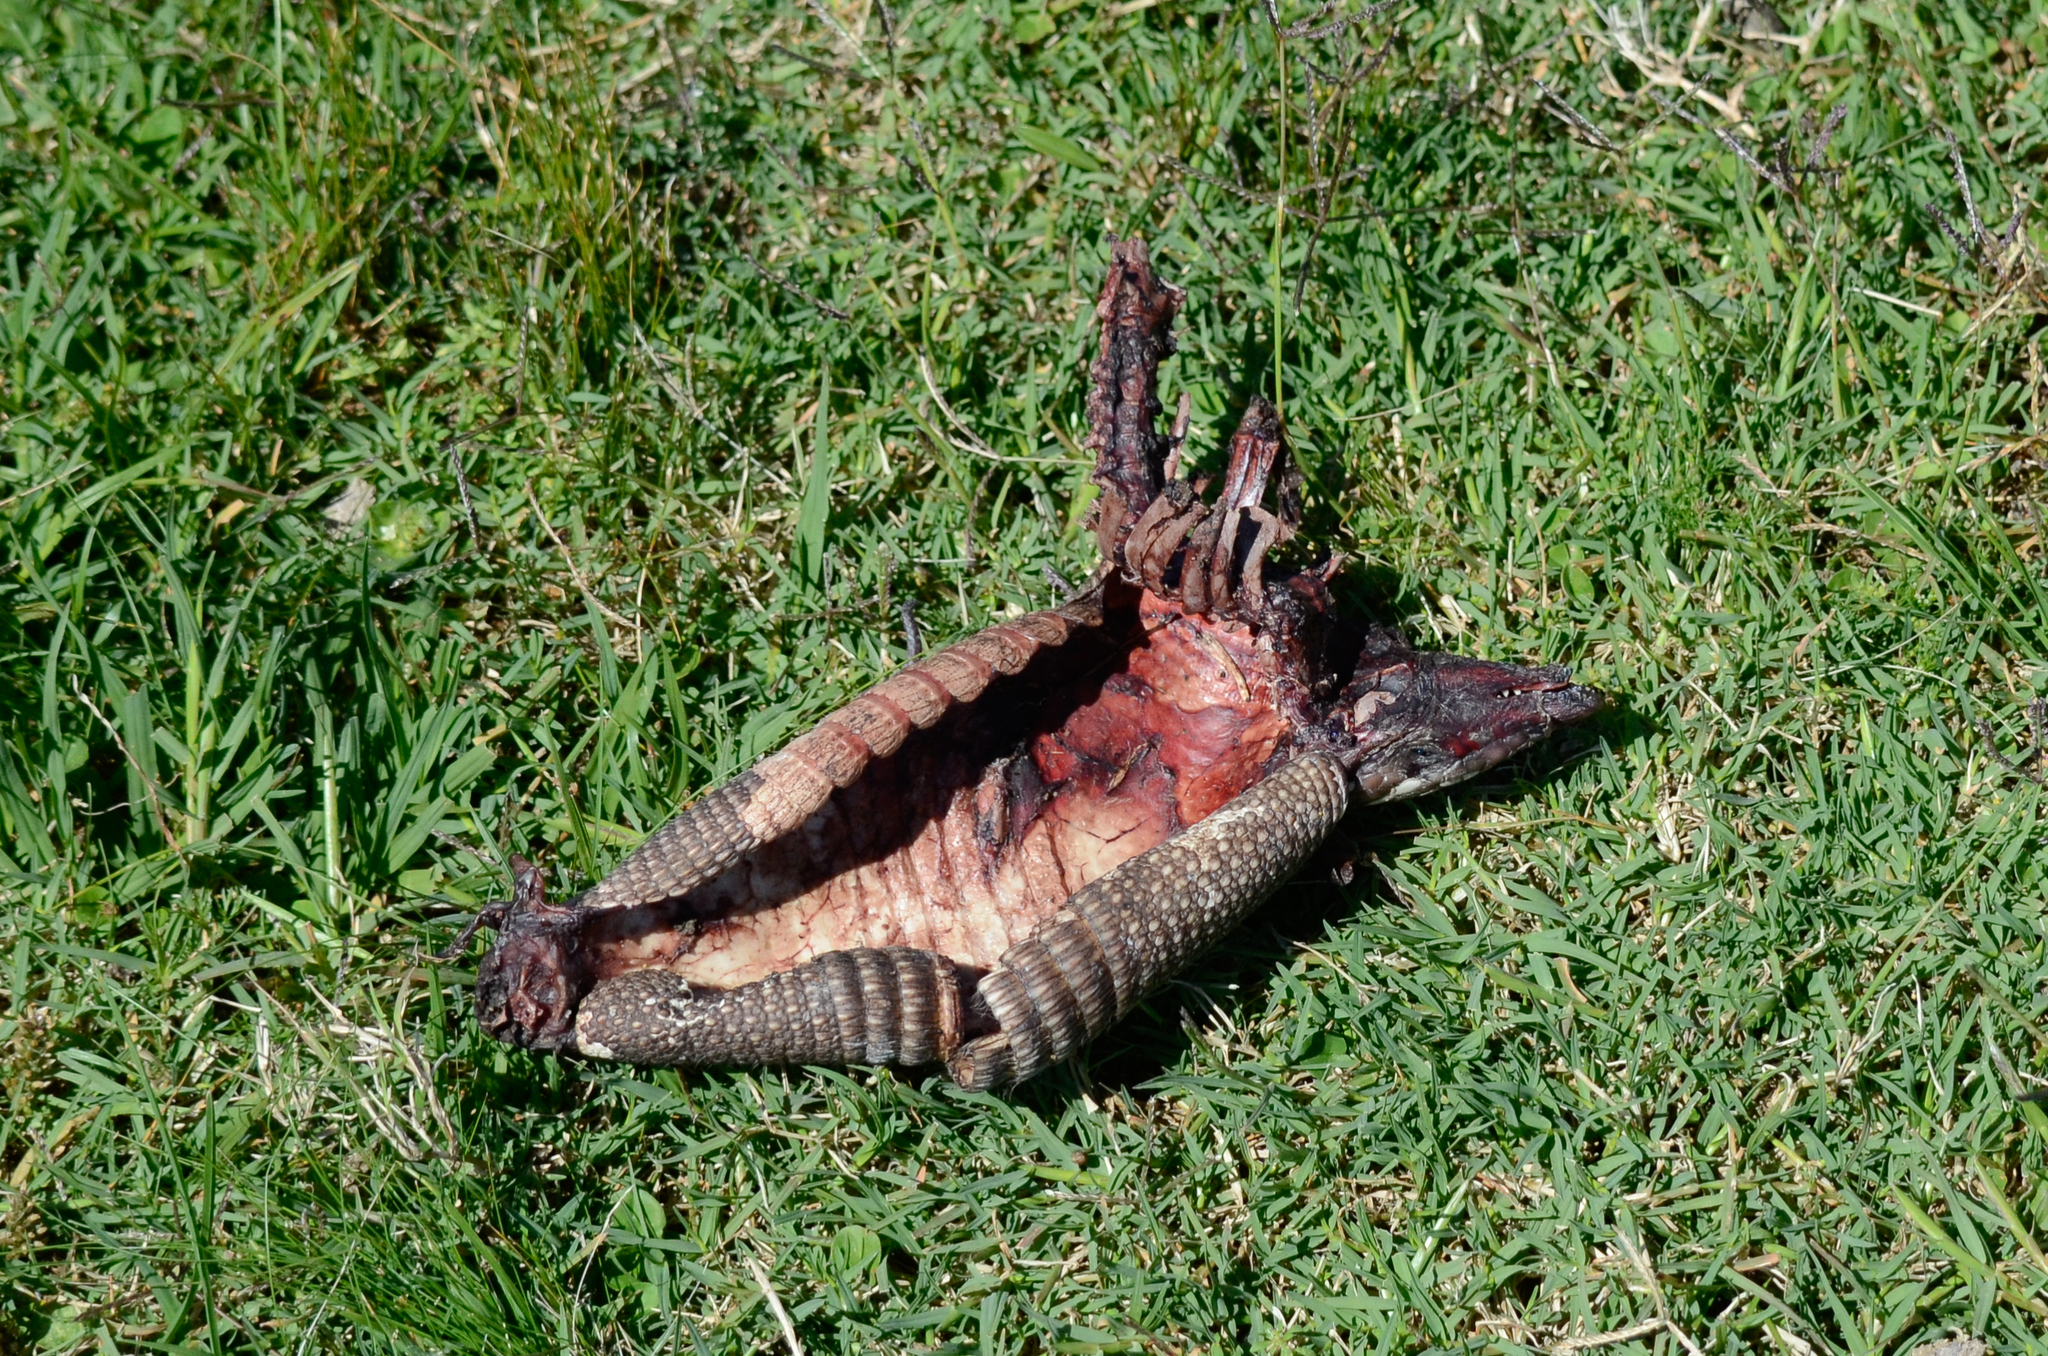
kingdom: Animalia
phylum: Chordata
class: Mammalia
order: Cingulata
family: Dasypodidae
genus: Dasypus
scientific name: Dasypus septemcinctus
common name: Seven-banded armadillo
